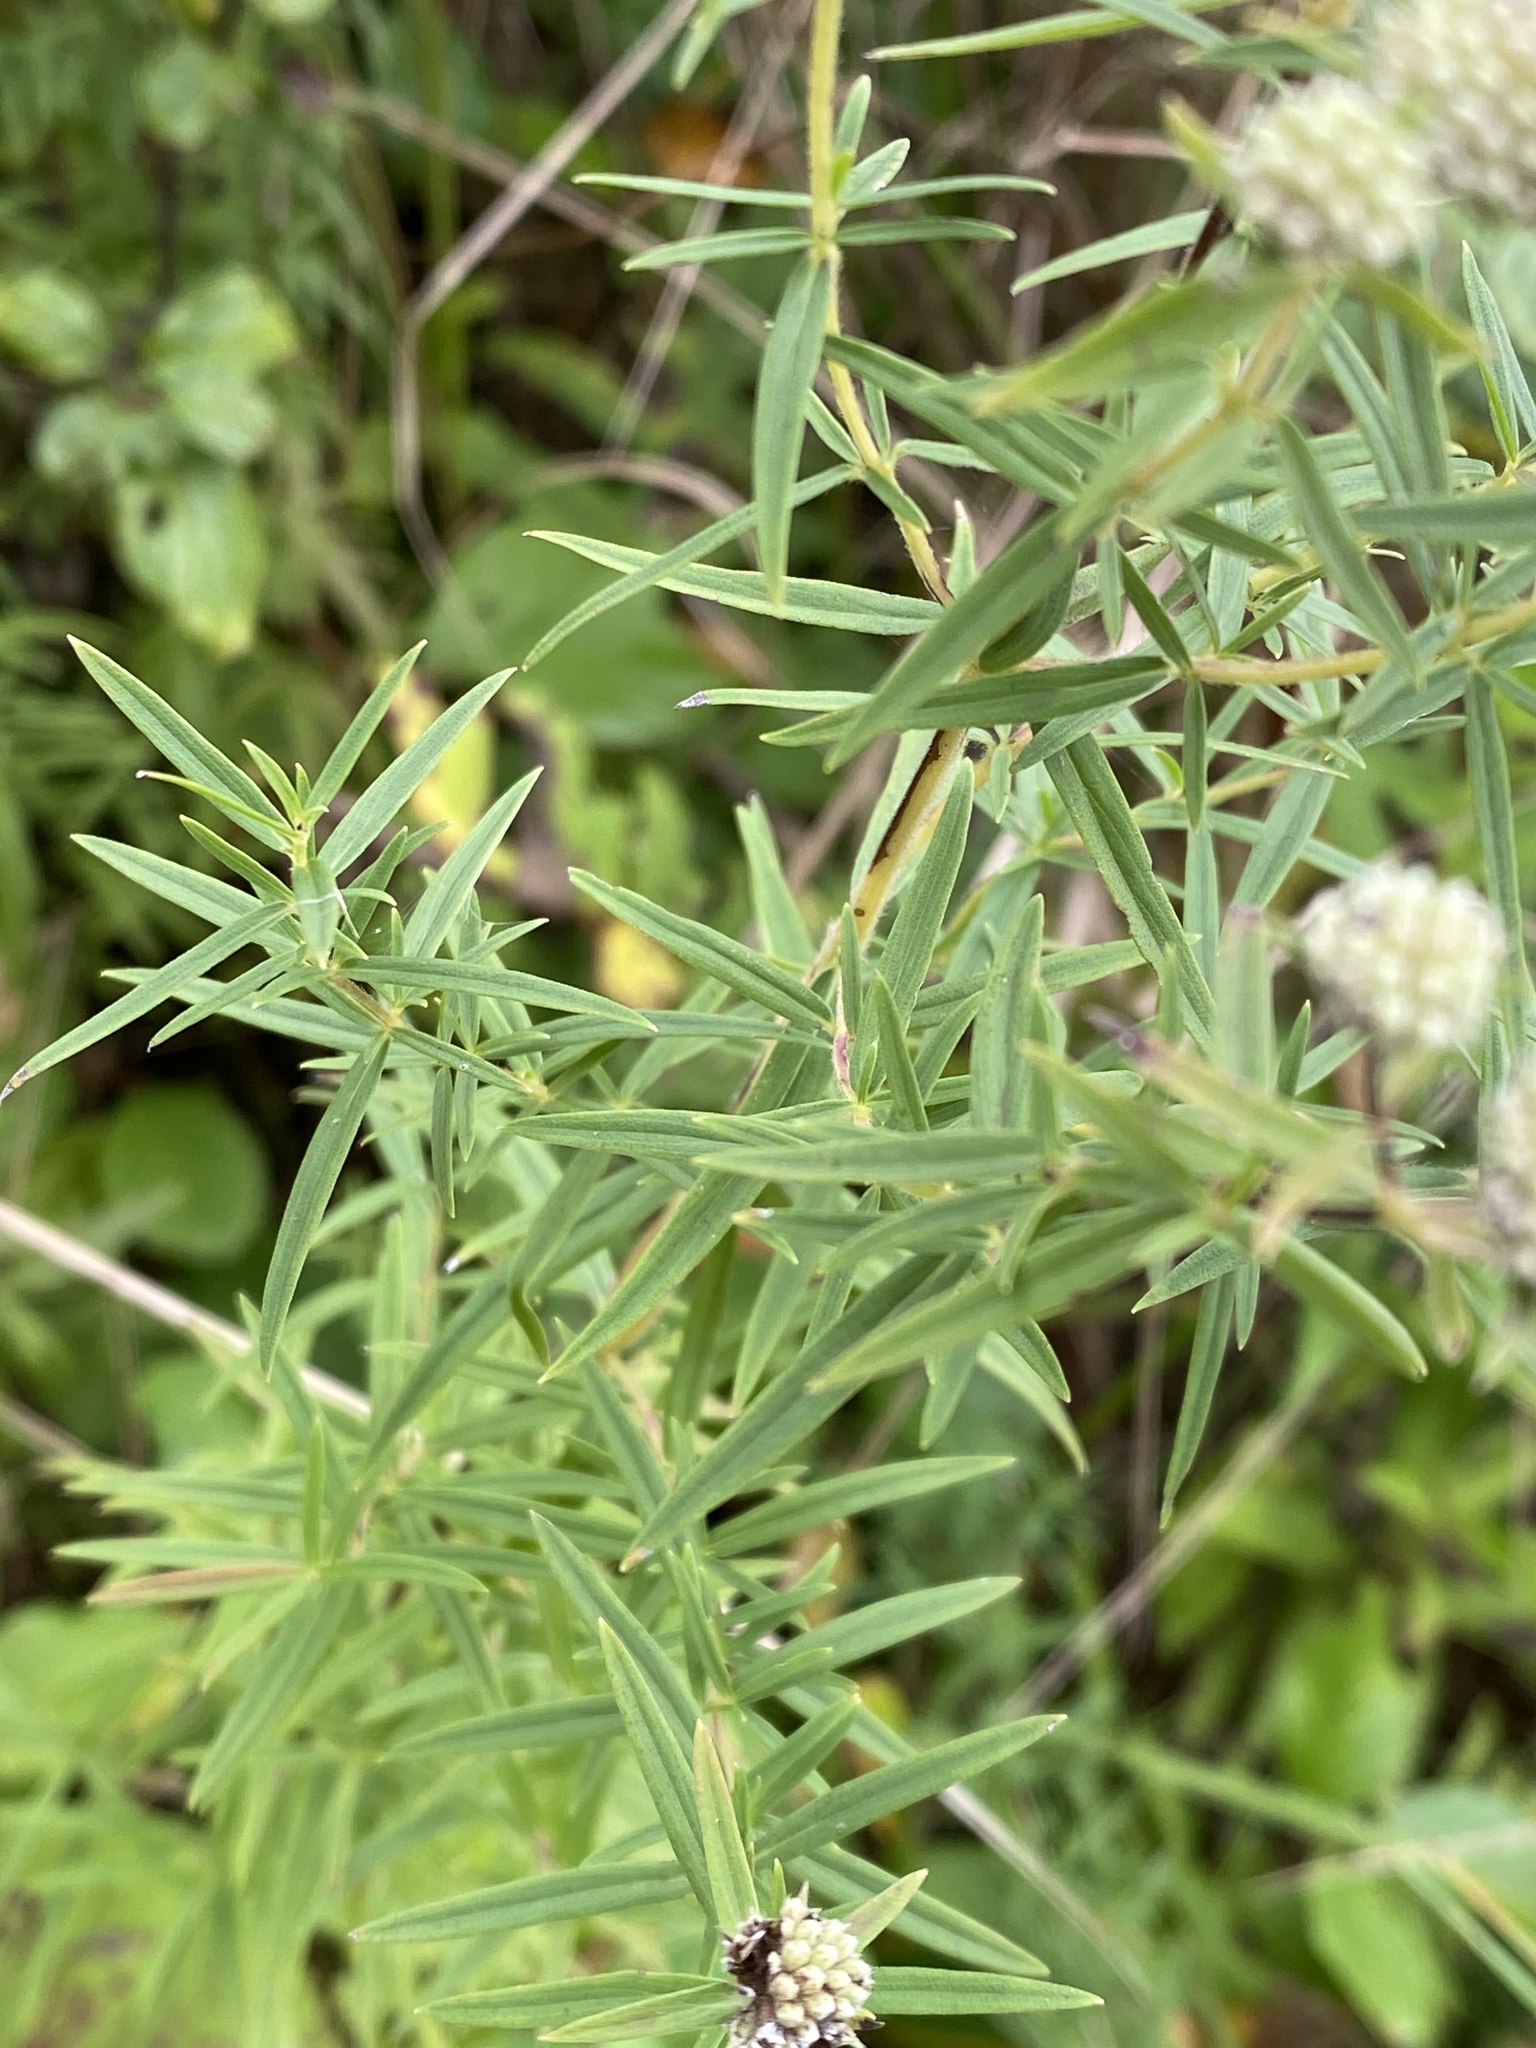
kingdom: Plantae
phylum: Tracheophyta
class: Magnoliopsida
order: Lamiales
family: Lamiaceae
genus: Pycnanthemum
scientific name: Pycnanthemum virginianum
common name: Virginia mountain-mint
